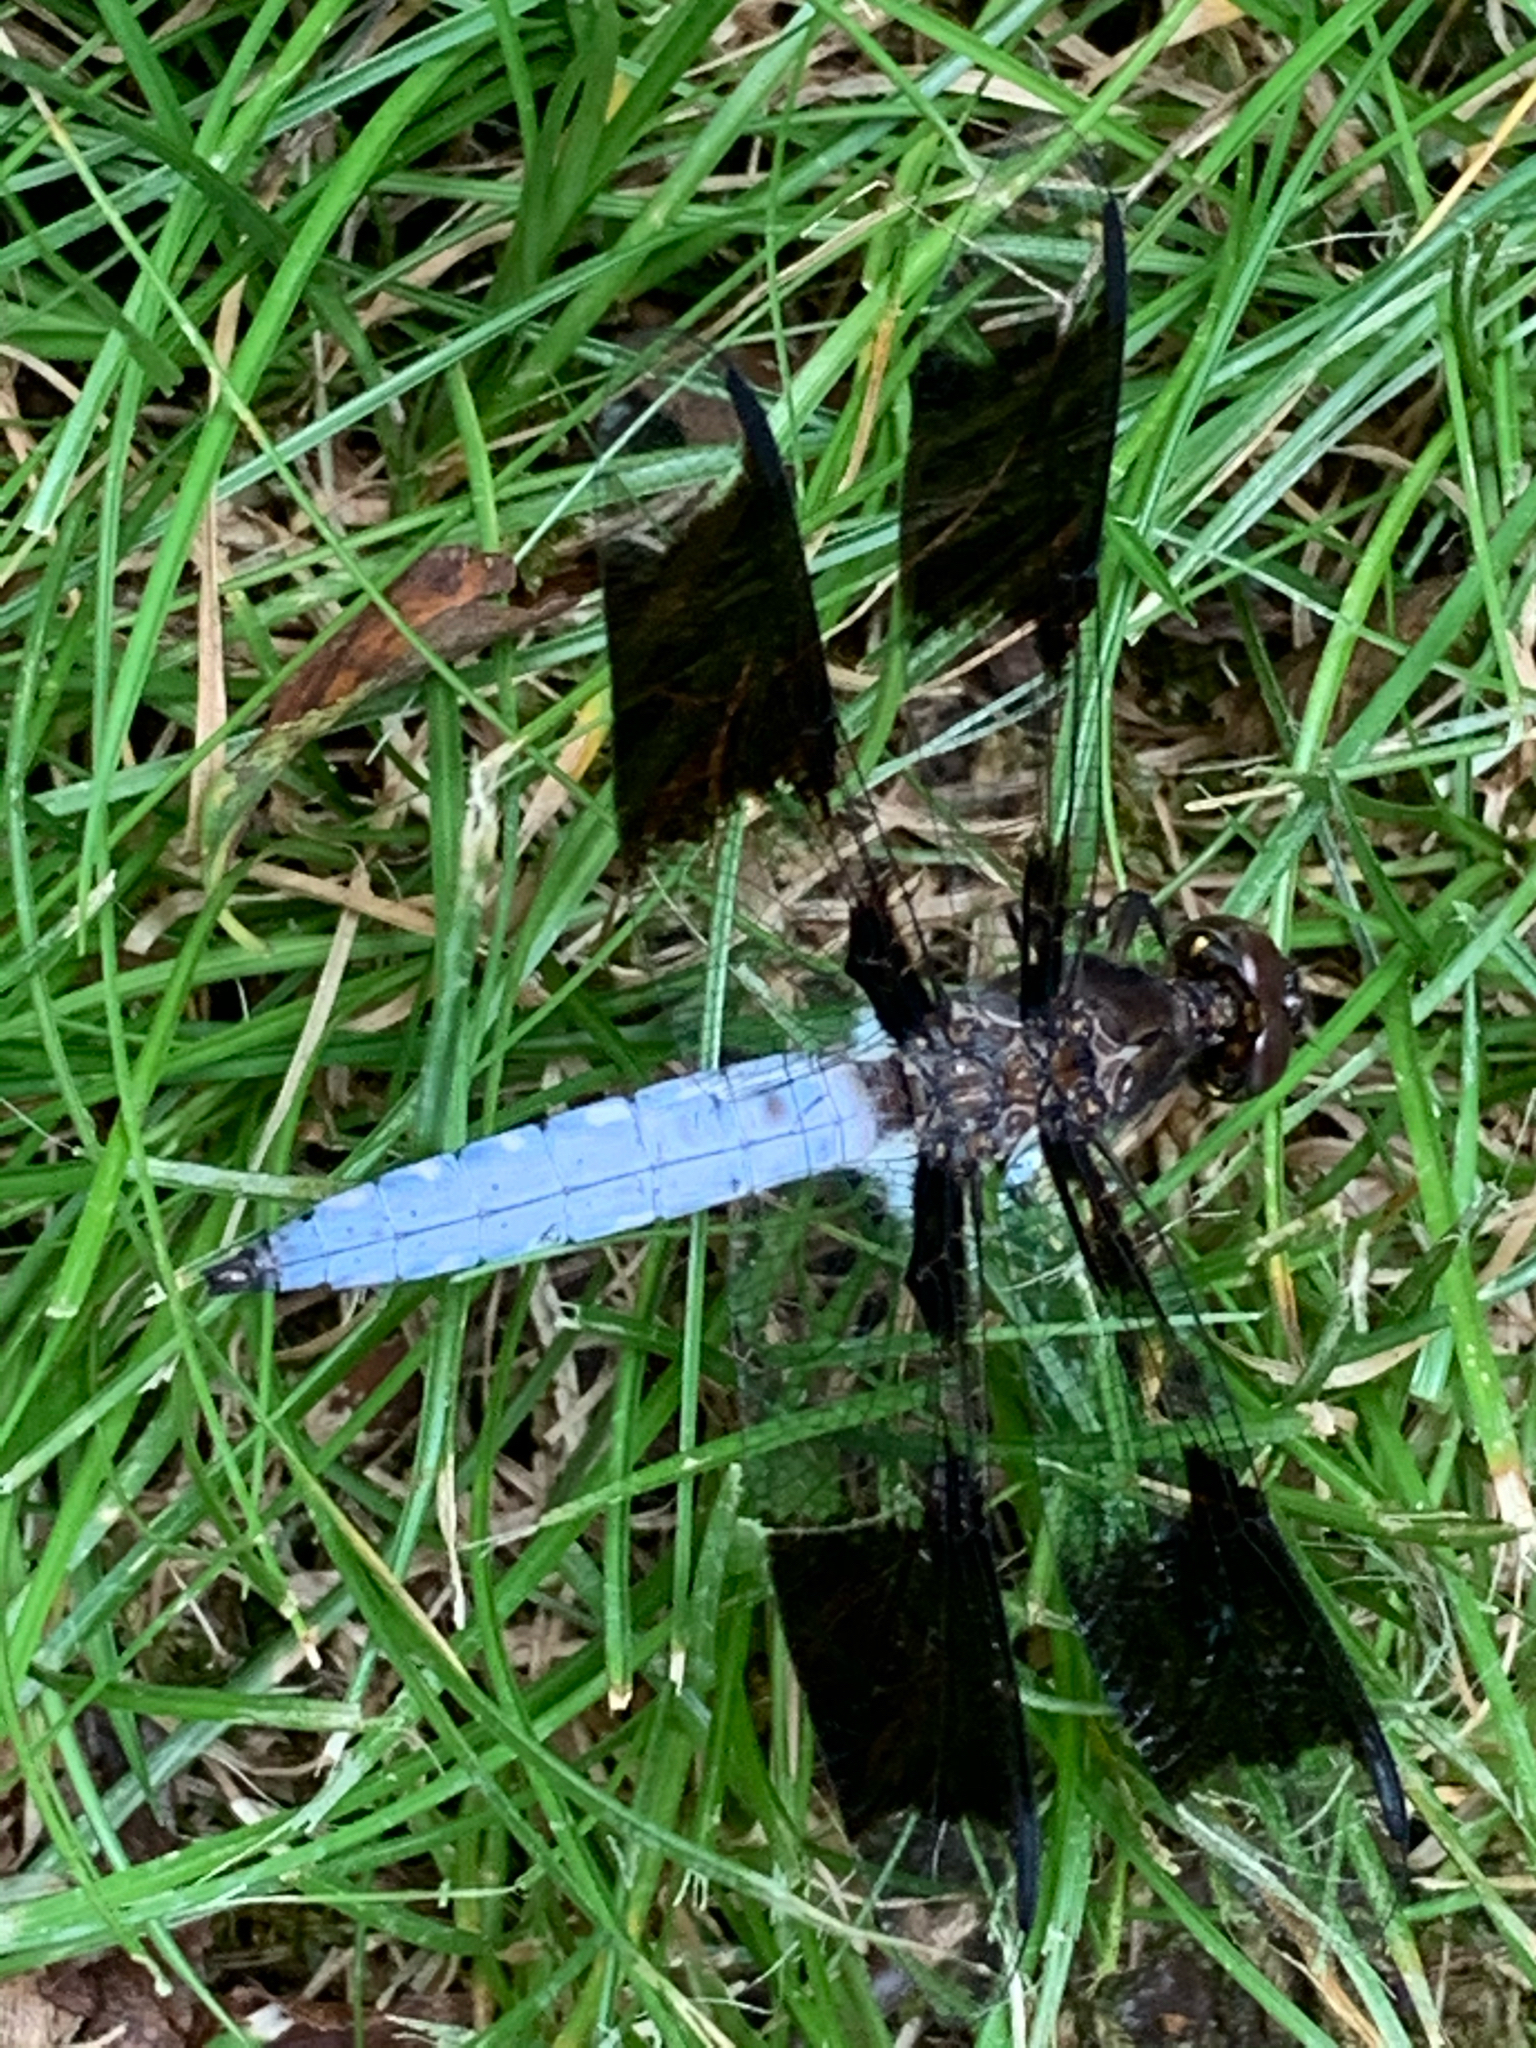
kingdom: Animalia
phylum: Arthropoda
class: Insecta
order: Odonata
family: Libellulidae
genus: Plathemis
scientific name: Plathemis lydia
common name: Common whitetail
